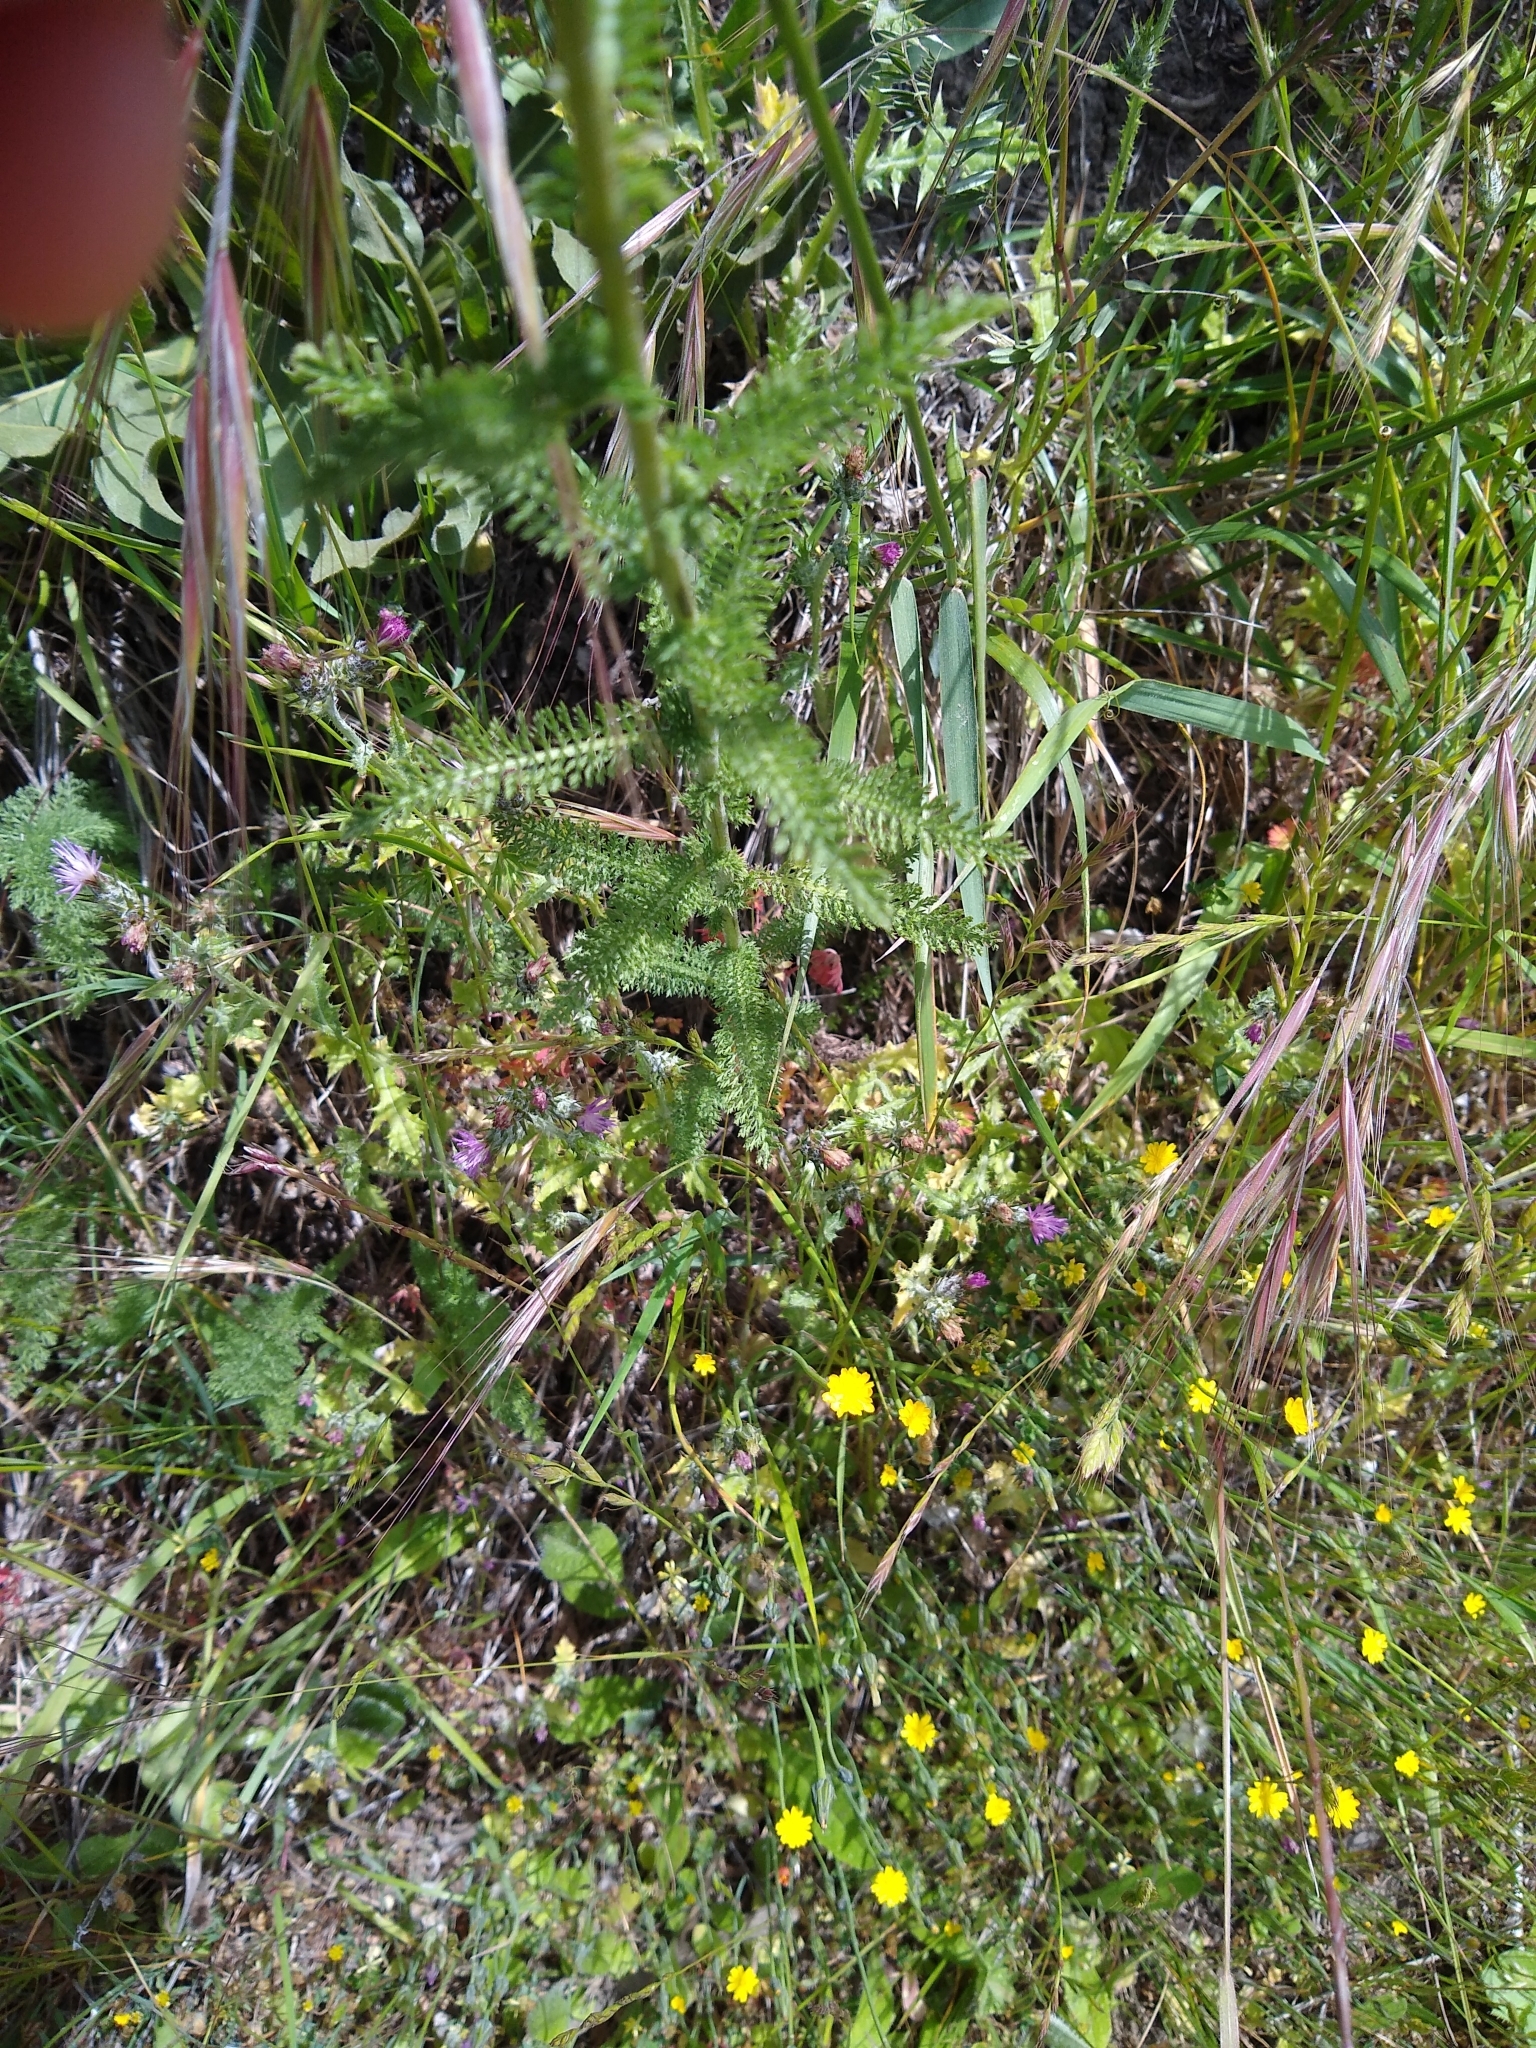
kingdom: Plantae
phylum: Tracheophyta
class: Magnoliopsida
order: Asterales
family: Asteraceae
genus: Achillea
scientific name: Achillea millefolium
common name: Yarrow
